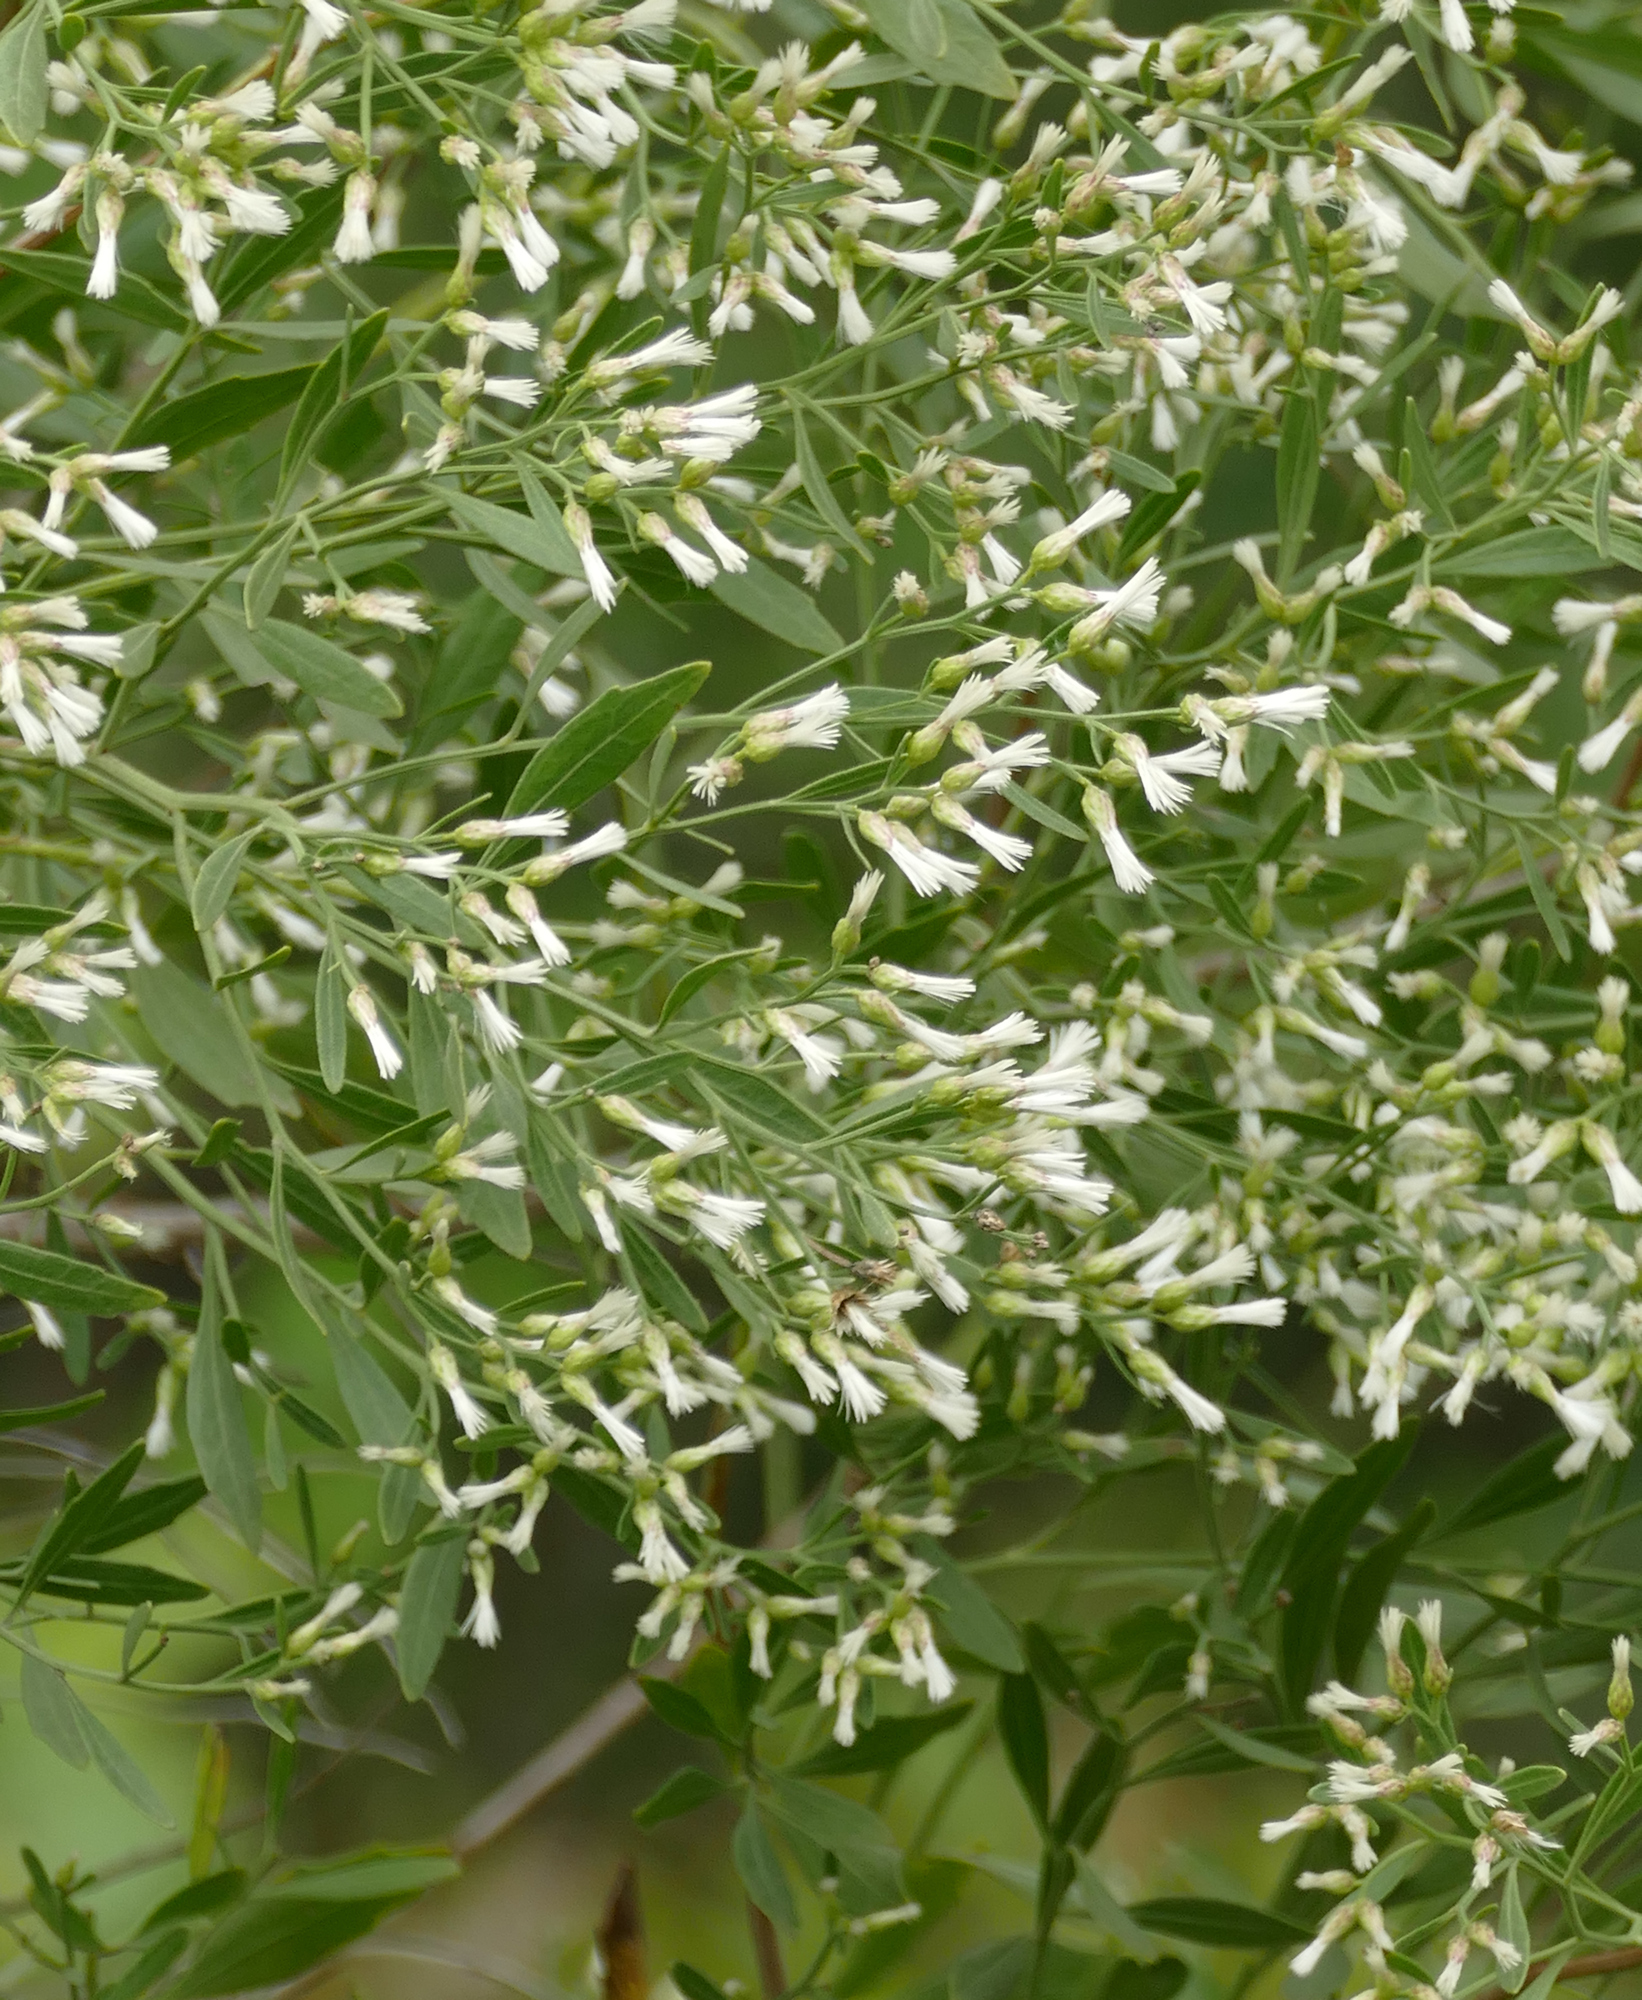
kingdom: Plantae
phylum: Tracheophyta
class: Magnoliopsida
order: Asterales
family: Asteraceae
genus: Baccharis
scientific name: Baccharis halimifolia
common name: Eastern baccharis
